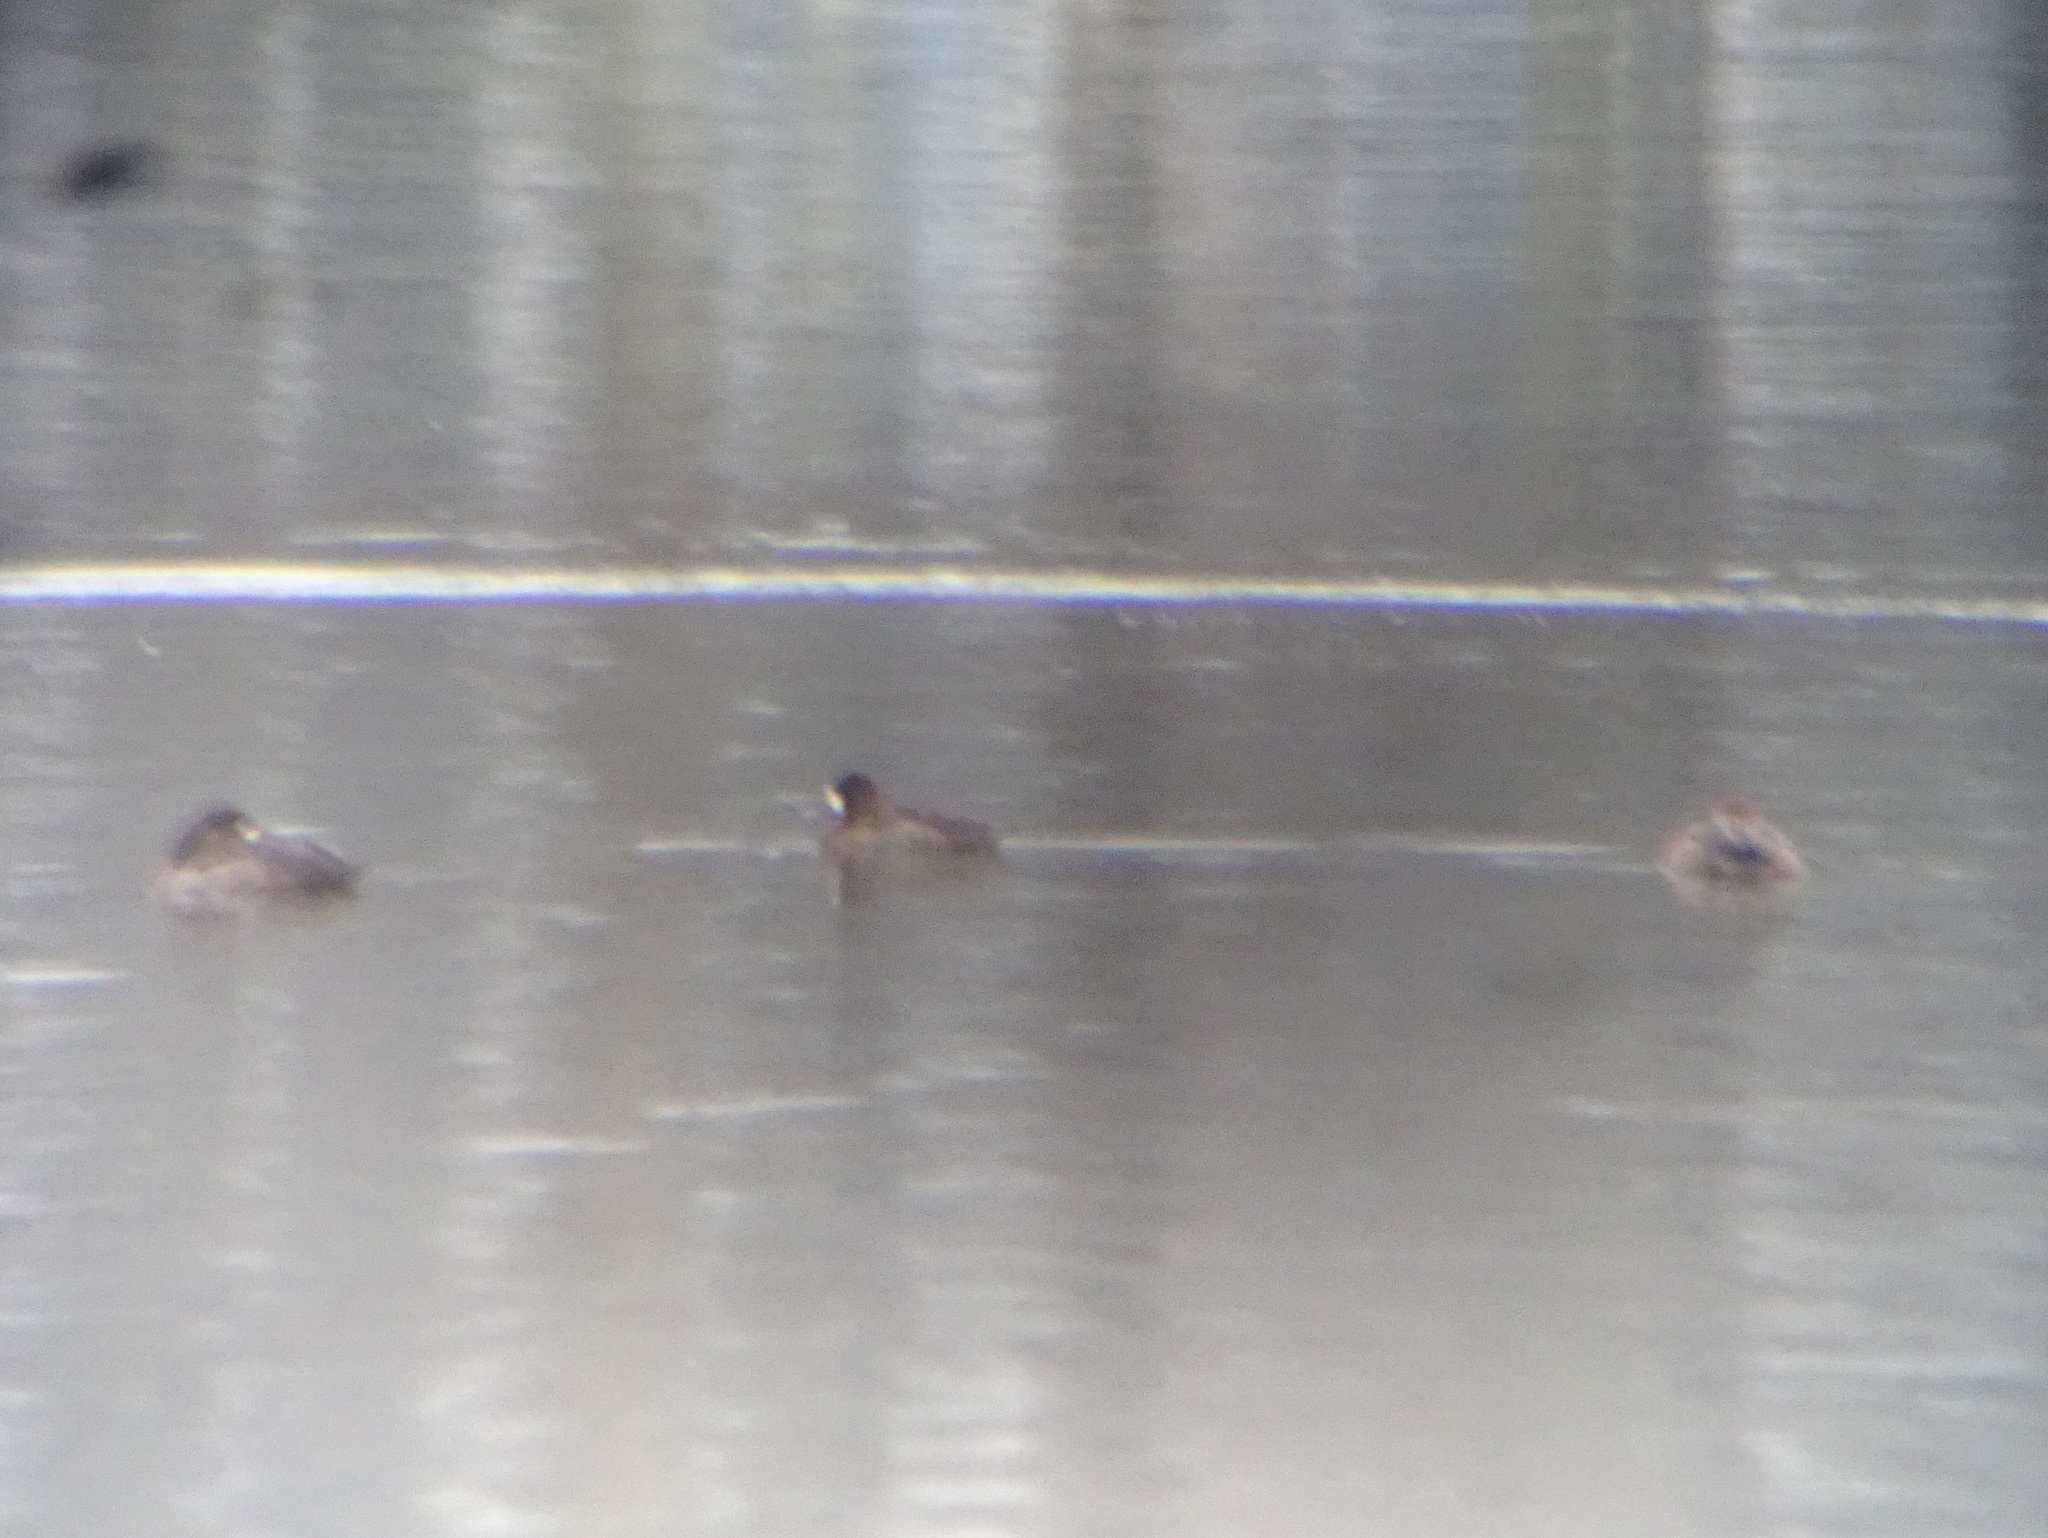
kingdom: Animalia
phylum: Chordata
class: Aves
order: Anseriformes
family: Anatidae
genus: Aythya
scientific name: Aythya marila
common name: Greater scaup
